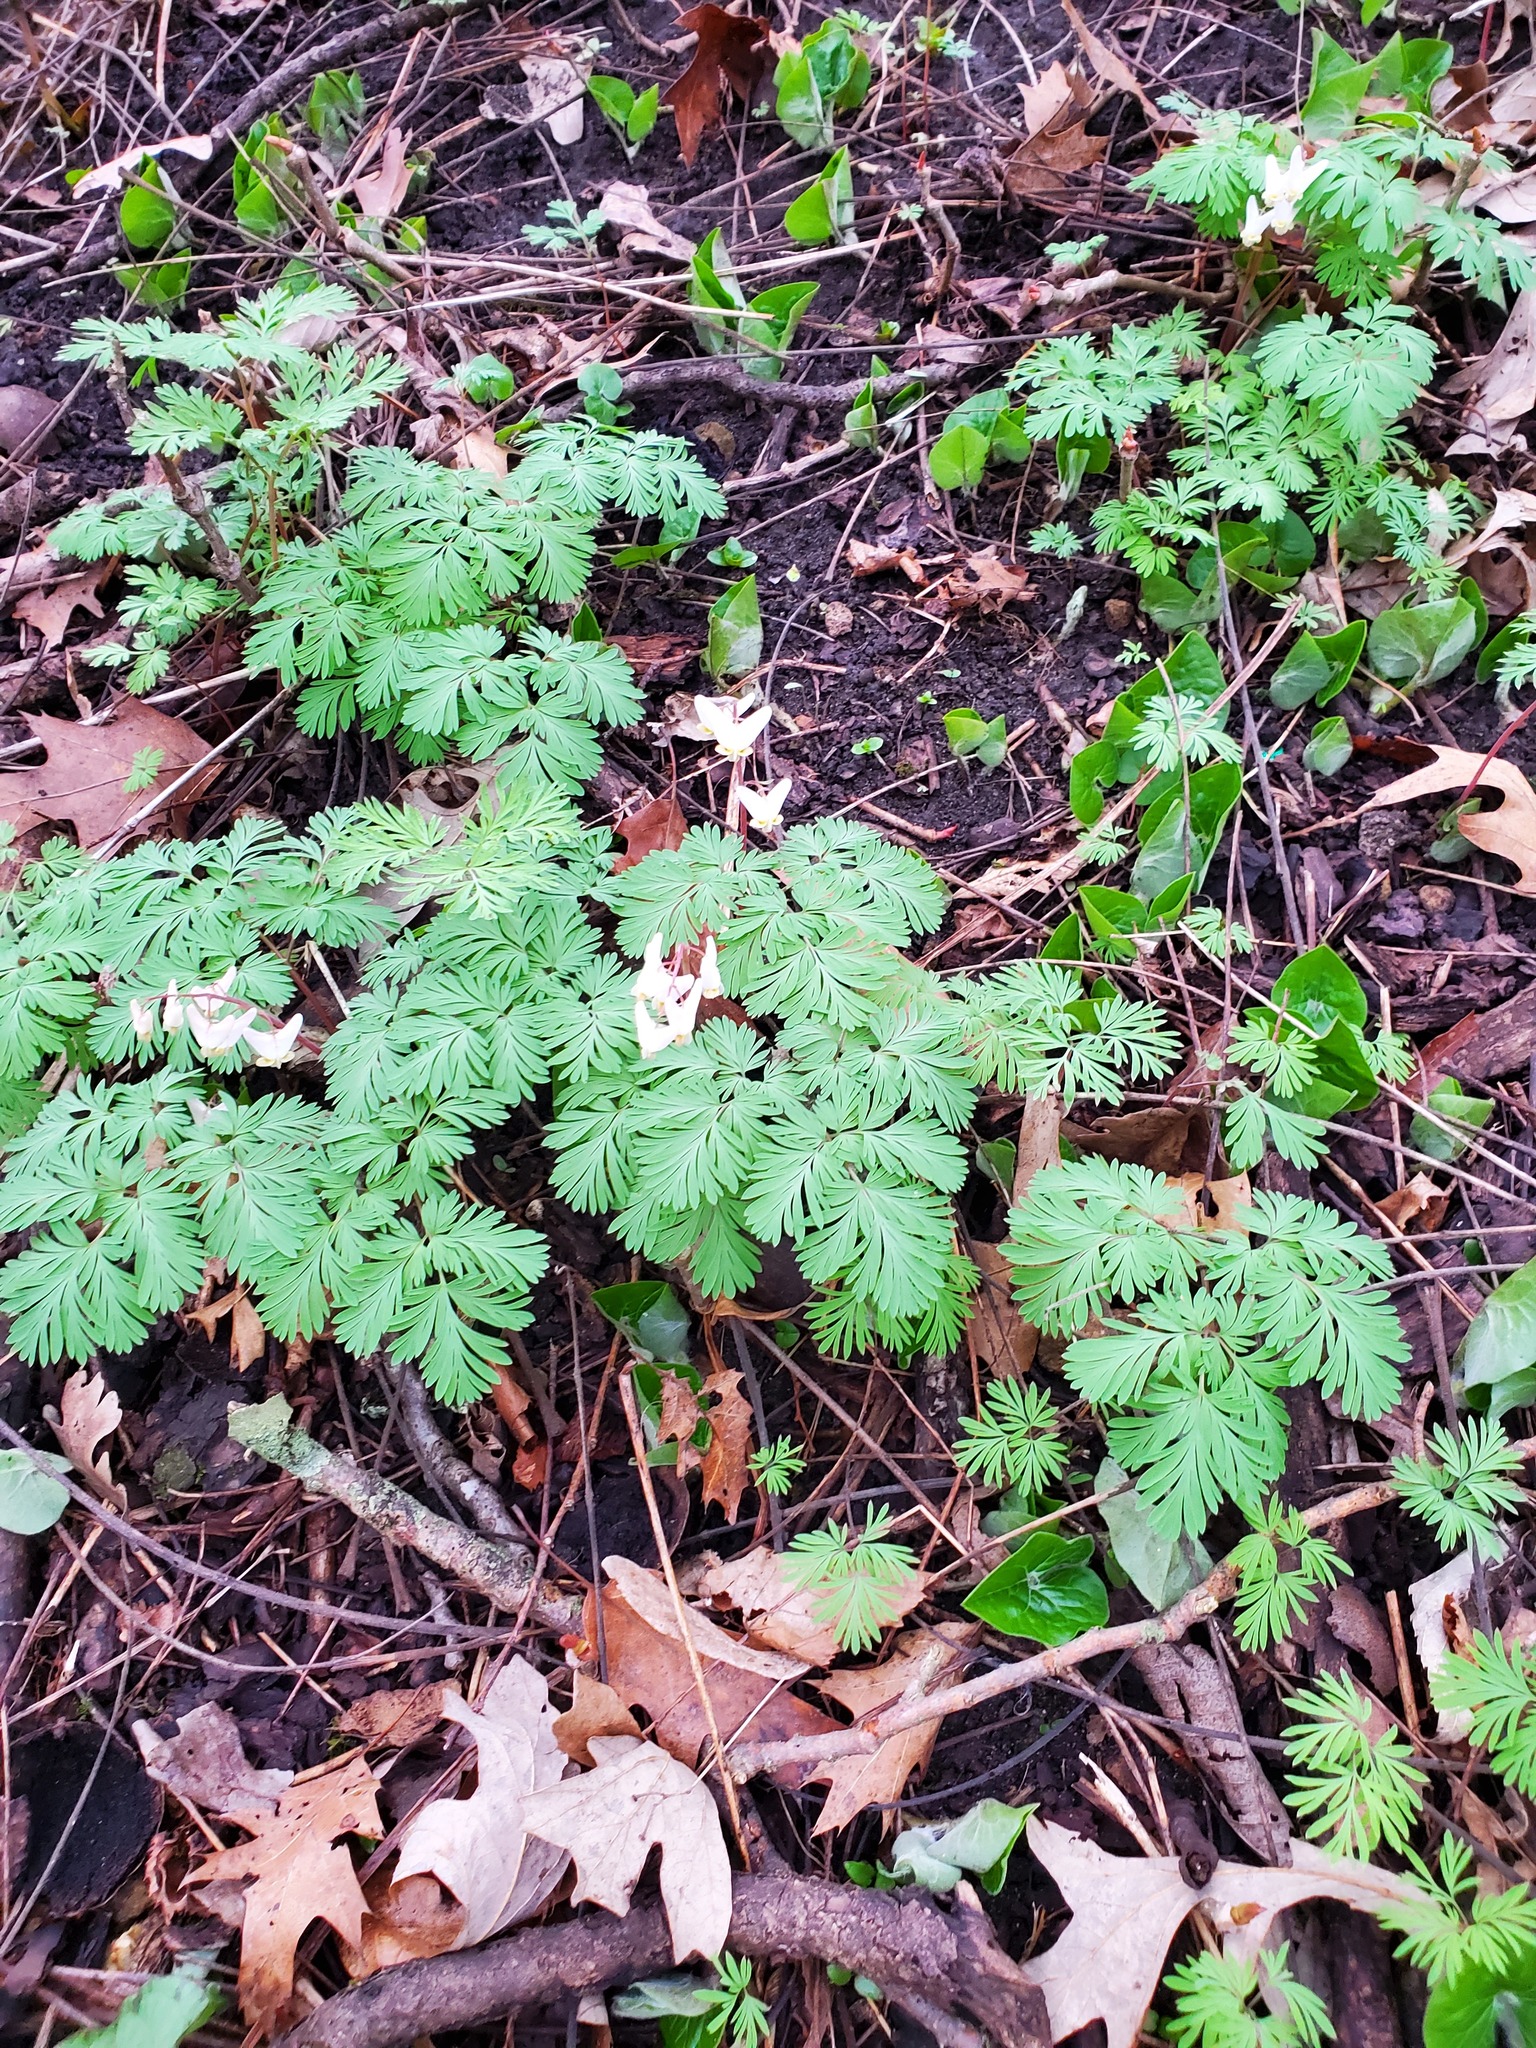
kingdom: Plantae
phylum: Tracheophyta
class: Magnoliopsida
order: Ranunculales
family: Papaveraceae
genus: Dicentra
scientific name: Dicentra cucullaria
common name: Dutchman's breeches
